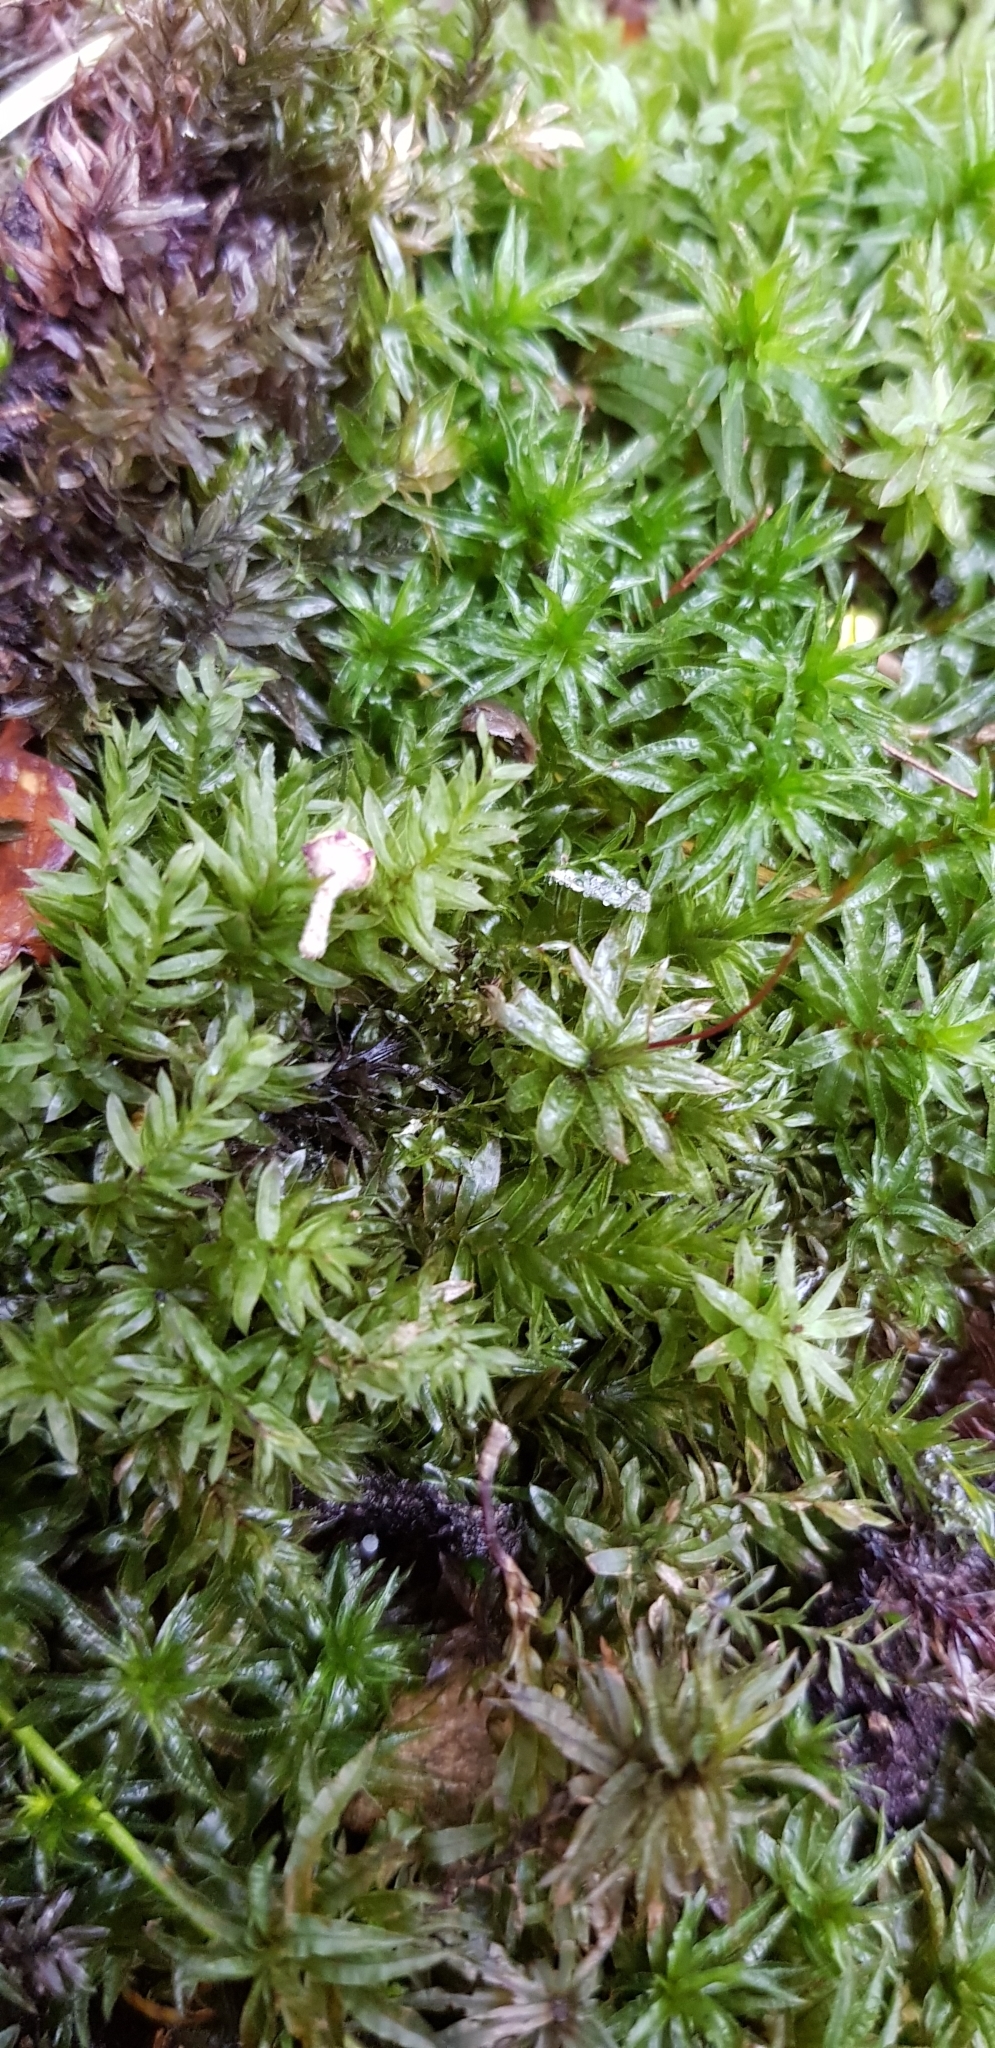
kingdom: Plantae
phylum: Bryophyta
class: Polytrichopsida
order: Polytrichales
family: Polytrichaceae
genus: Atrichum
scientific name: Atrichum undulatum
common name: Common smoothcap
